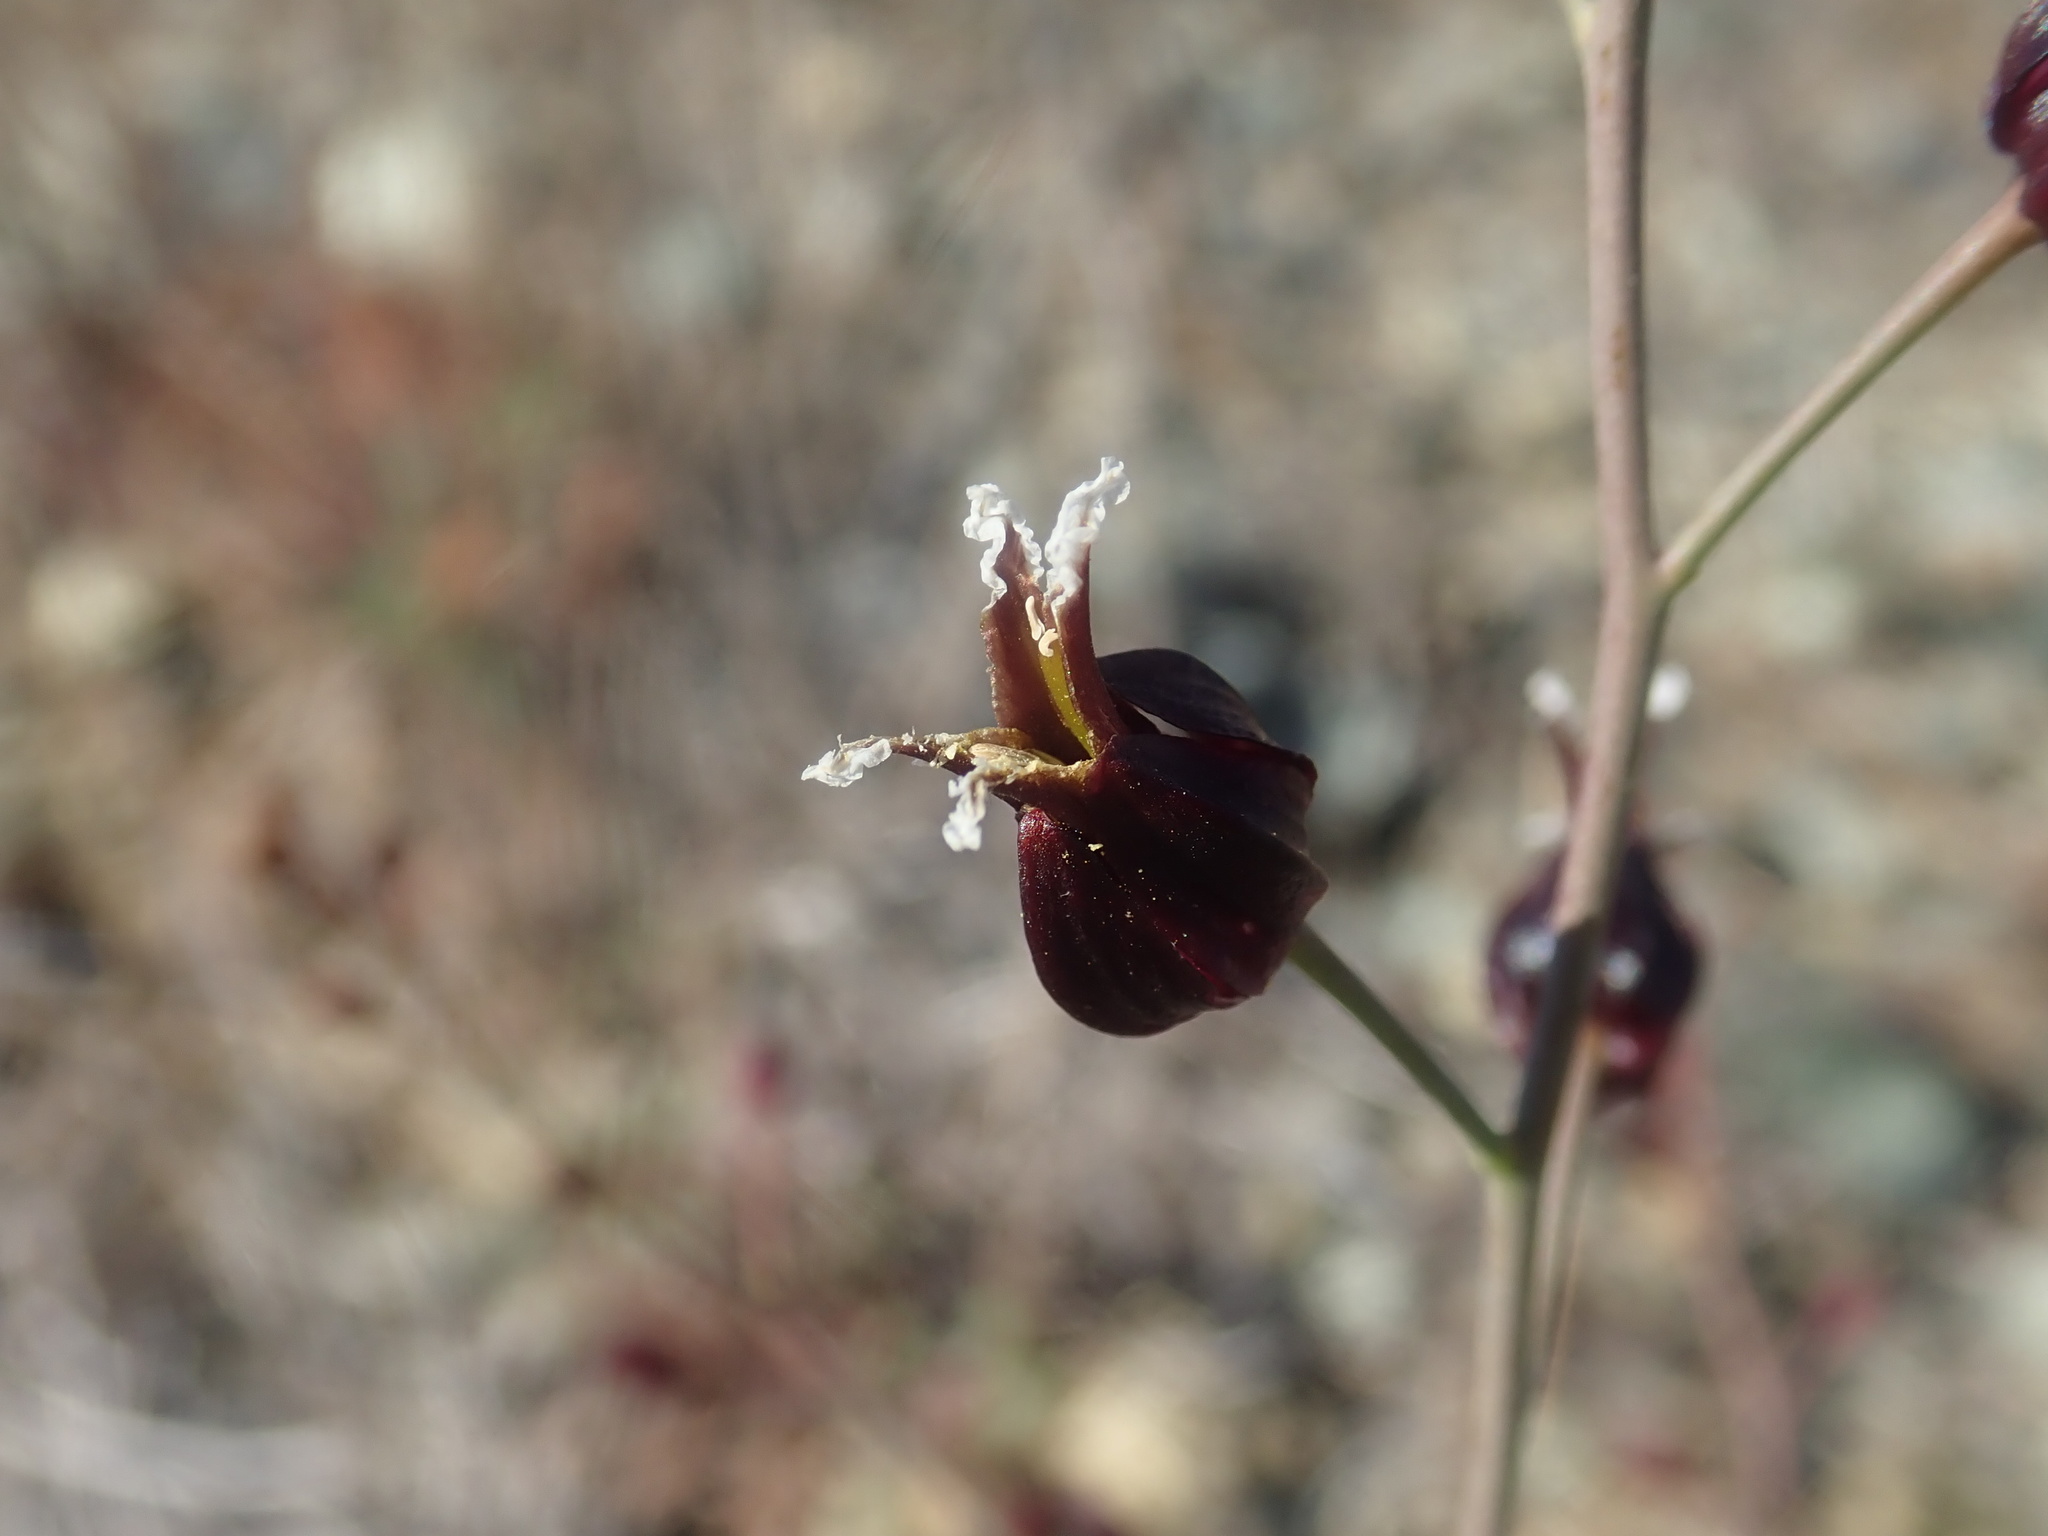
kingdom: Plantae
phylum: Tracheophyta
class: Magnoliopsida
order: Brassicales
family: Brassicaceae
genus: Streptanthus
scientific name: Streptanthus glandulosus
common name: Jewel-flower
